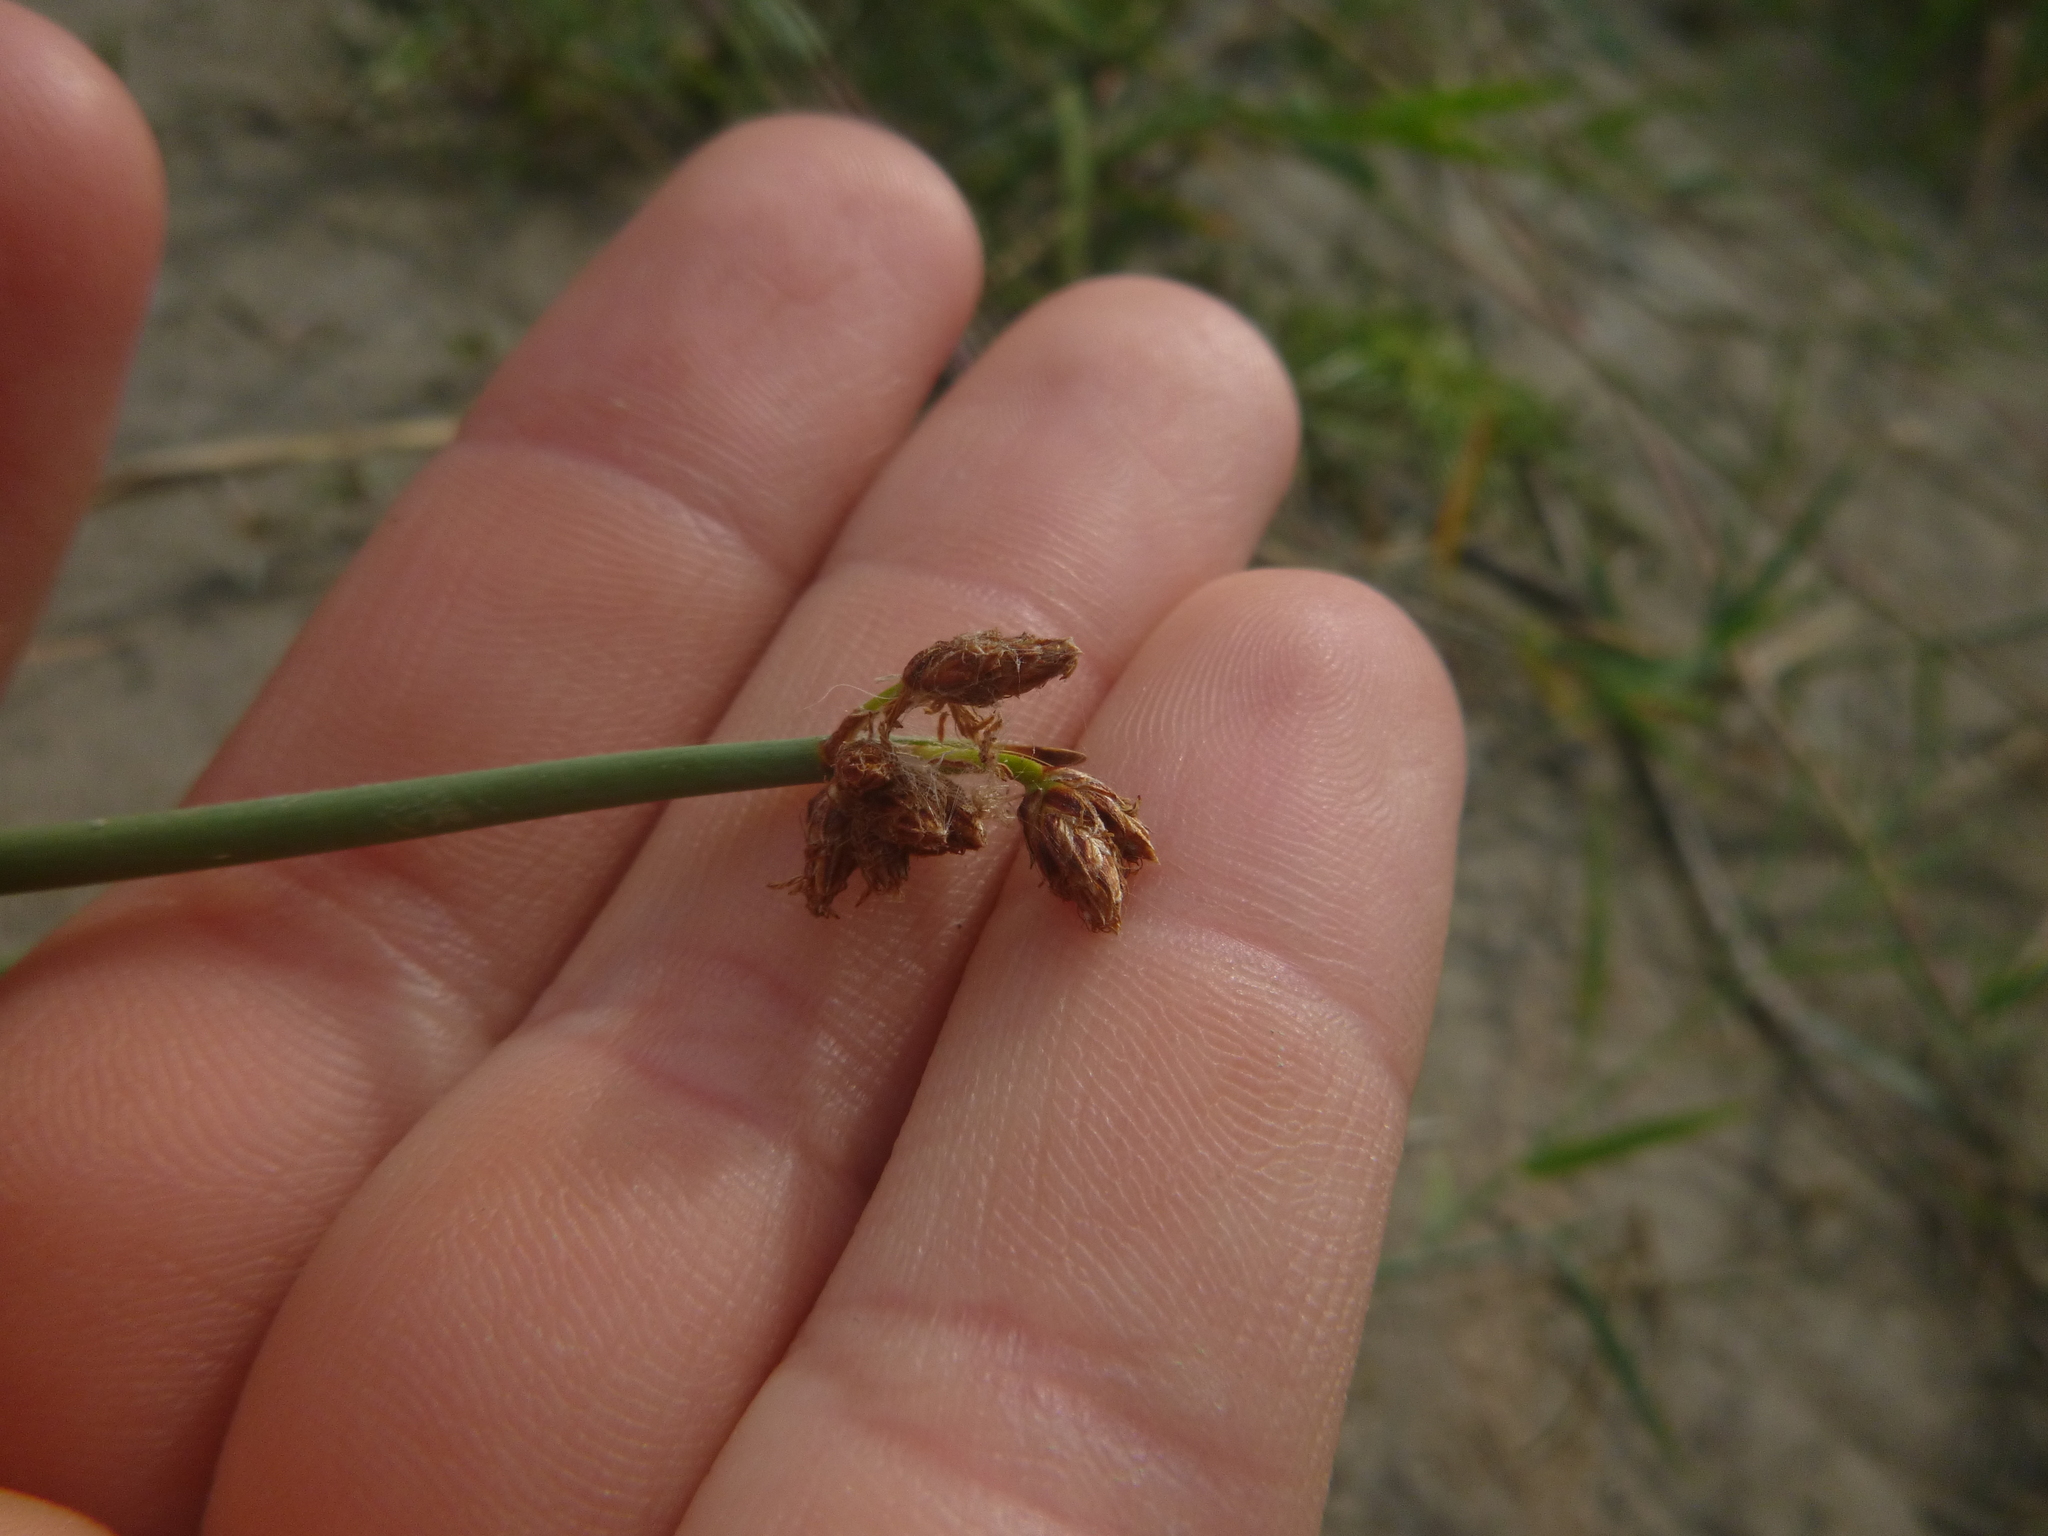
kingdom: Plantae
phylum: Tracheophyta
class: Liliopsida
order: Poales
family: Cyperaceae
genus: Schoenoplectus
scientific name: Schoenoplectus tabernaemontani
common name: Grey club-rush
